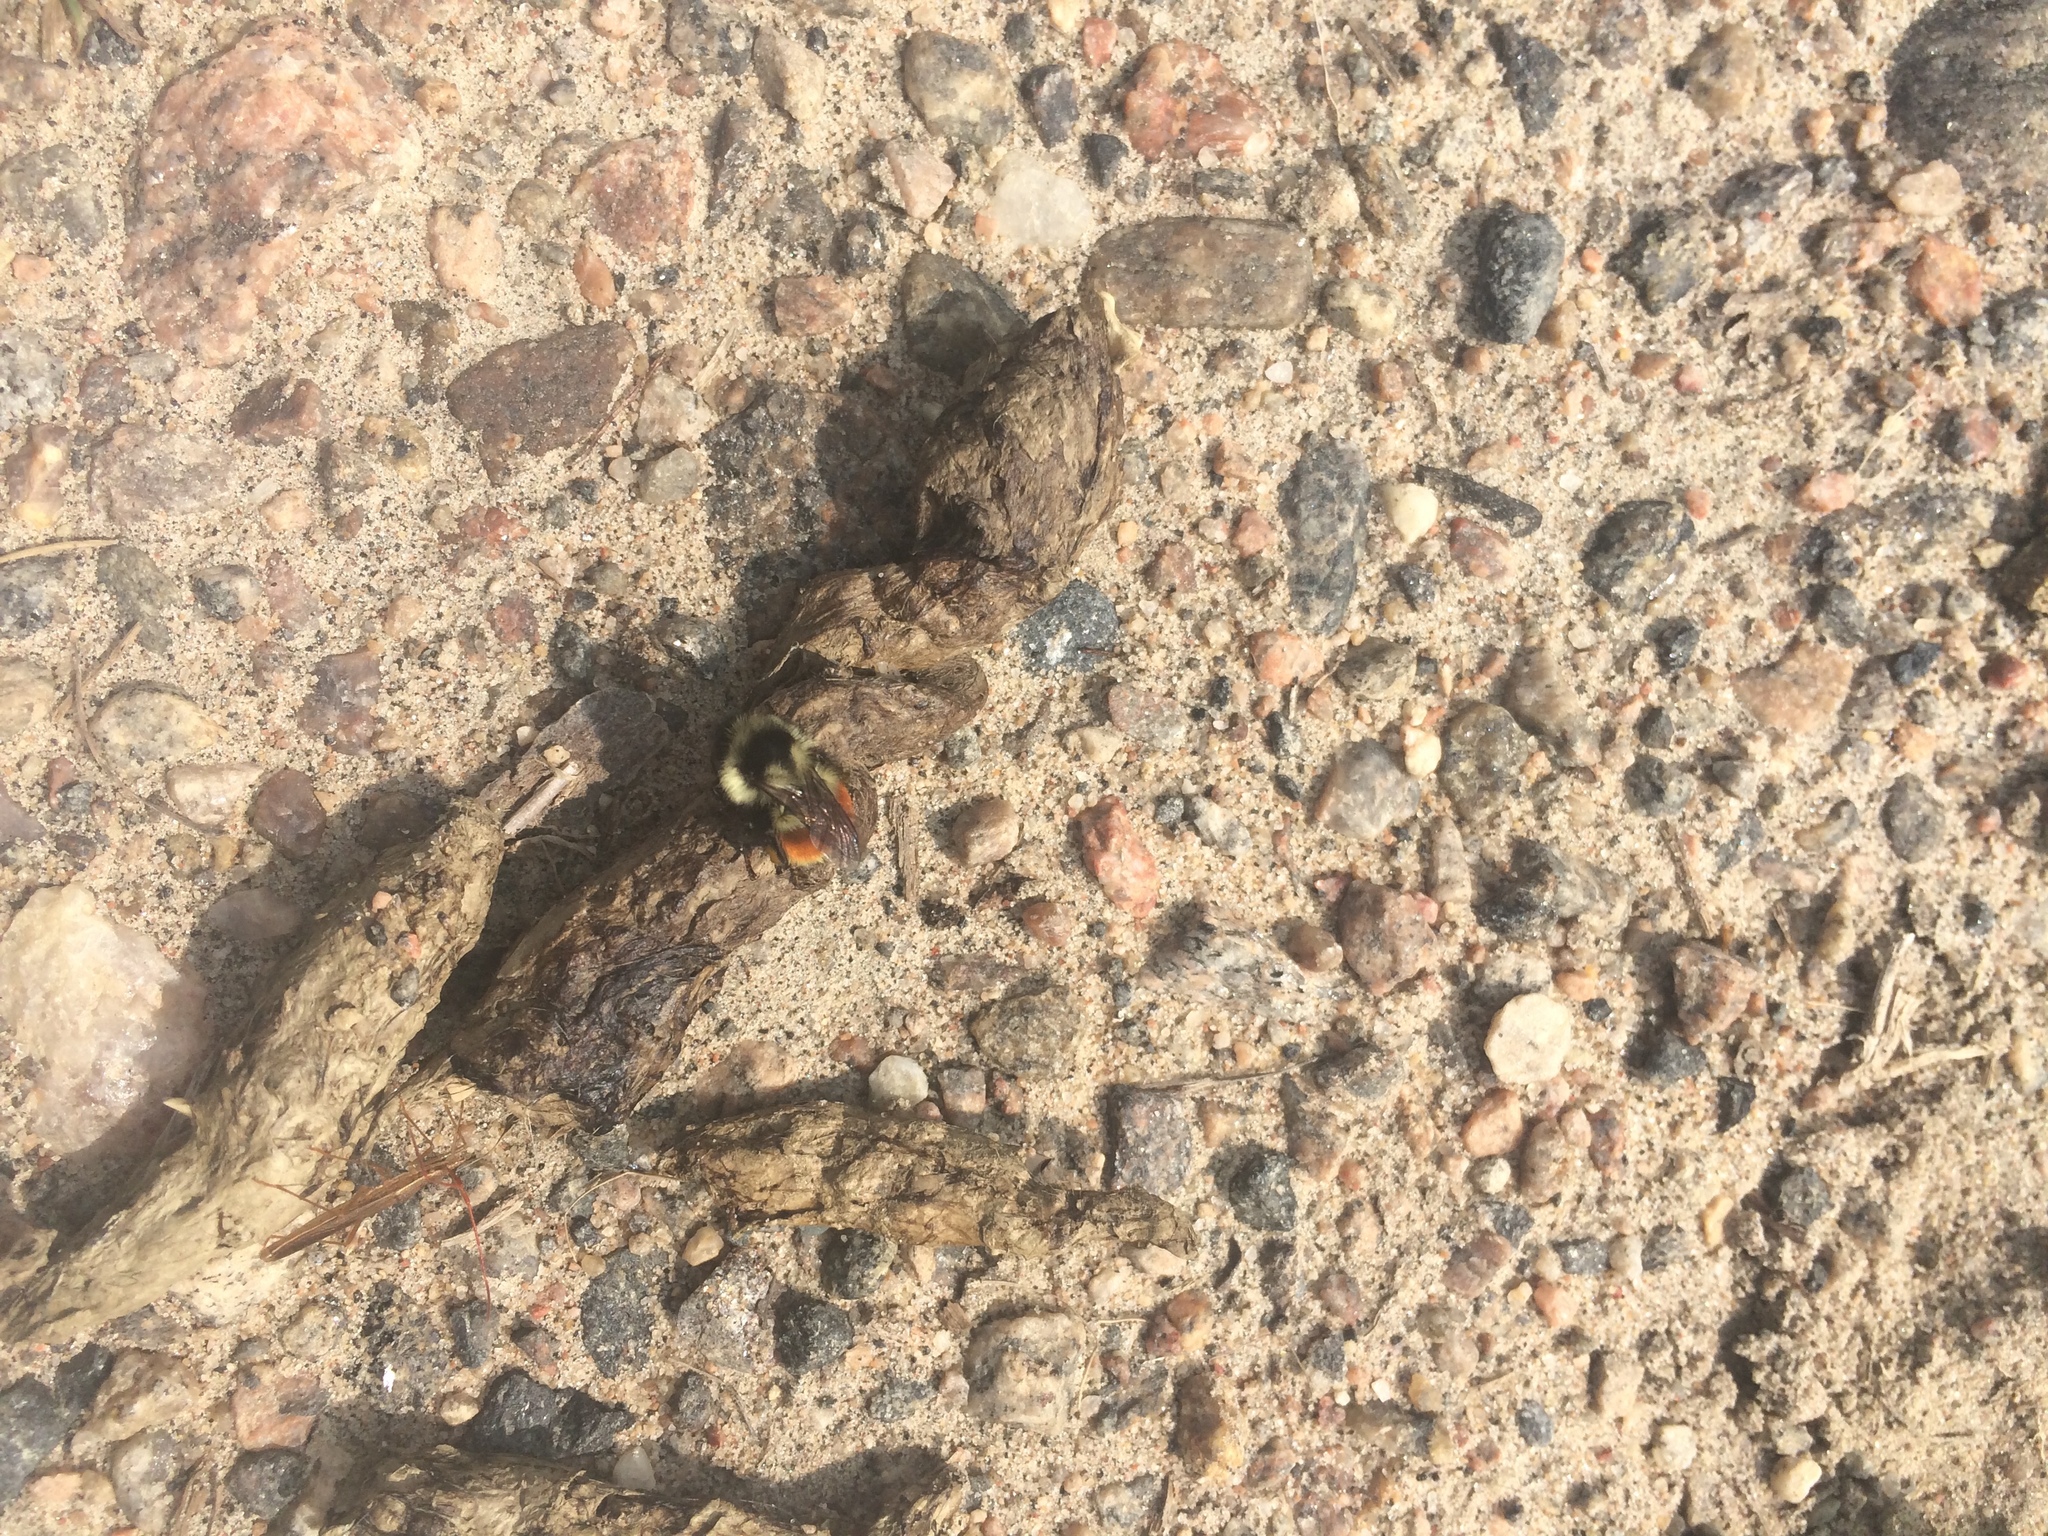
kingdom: Animalia
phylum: Arthropoda
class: Insecta
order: Hymenoptera
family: Apidae
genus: Bombus
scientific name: Bombus ternarius
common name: Tri-colored bumble bee
